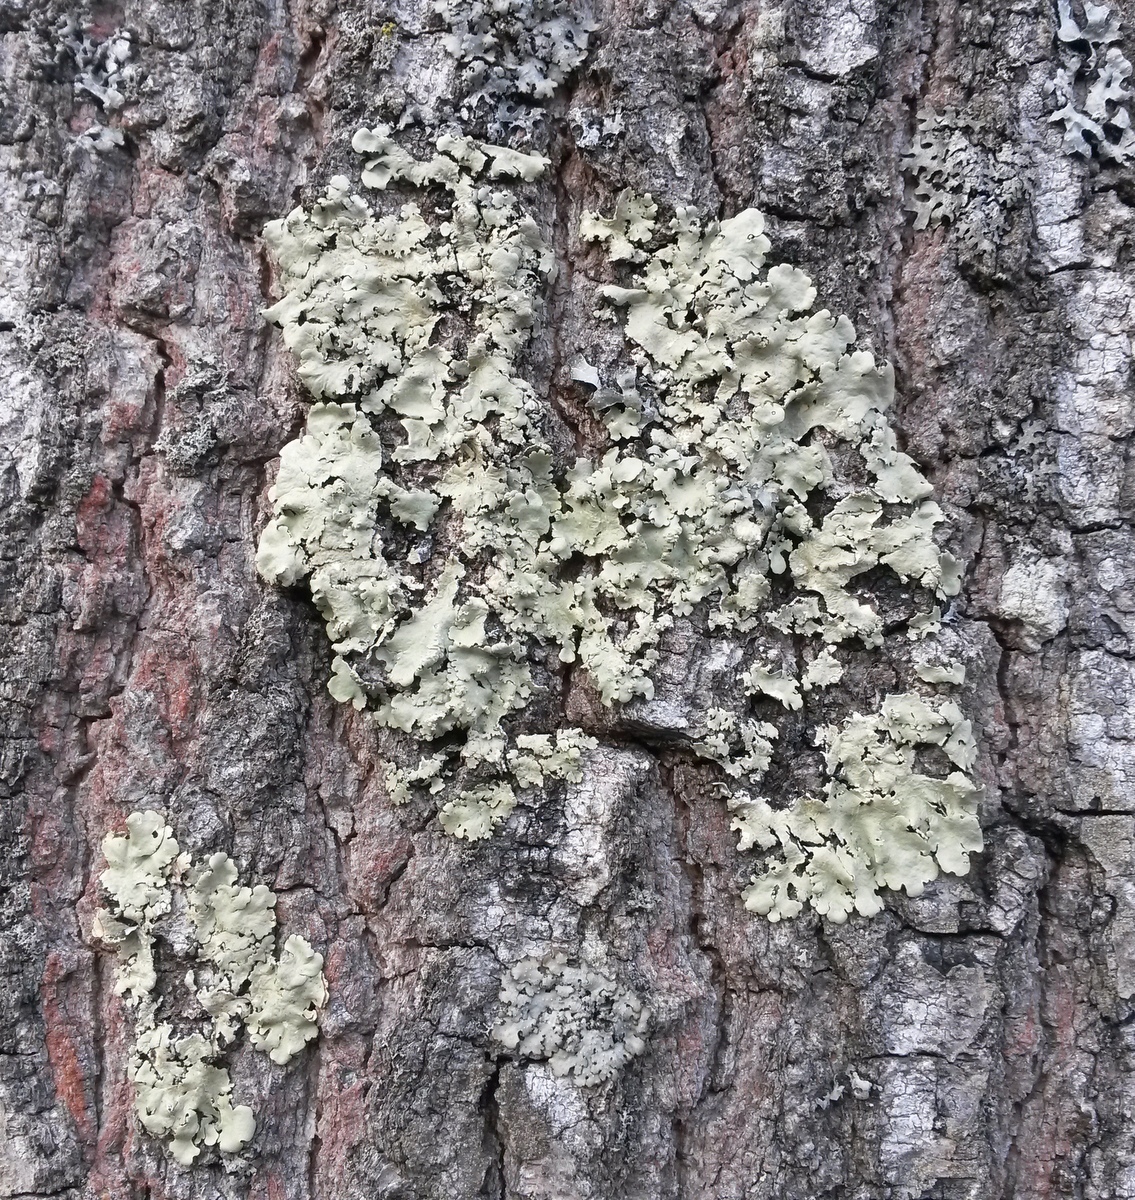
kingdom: Fungi
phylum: Ascomycota
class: Lecanoromycetes
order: Lecanorales
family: Parmeliaceae
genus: Flavoparmelia
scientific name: Flavoparmelia caperata
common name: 40-mile per hour lichen
